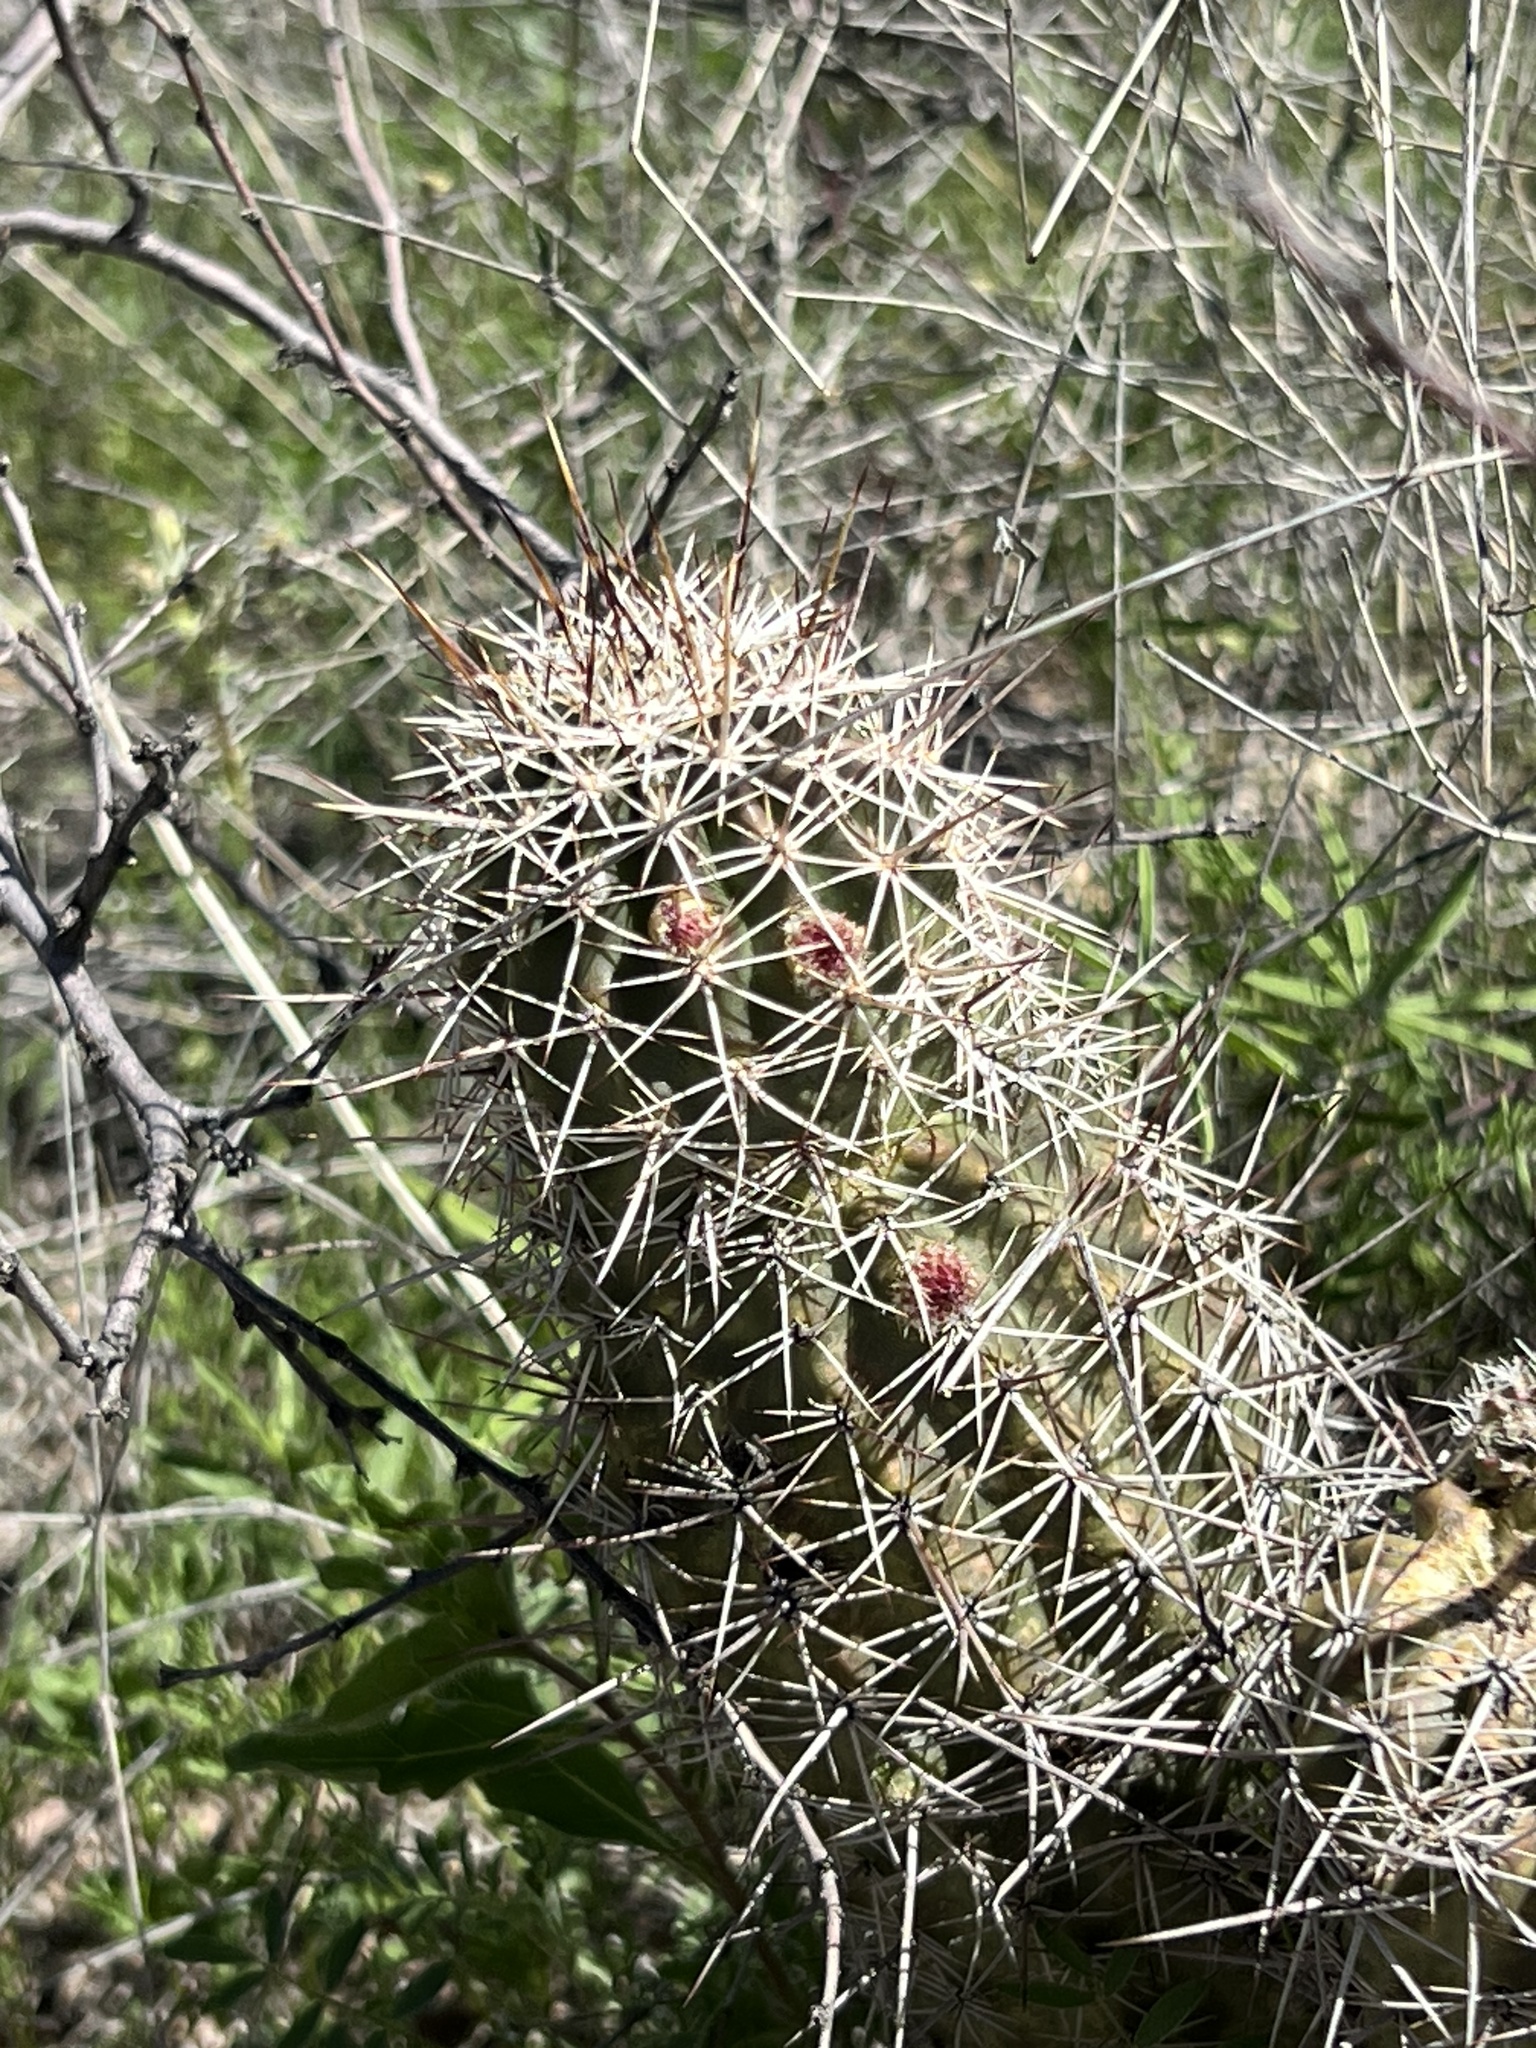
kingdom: Plantae
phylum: Tracheophyta
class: Magnoliopsida
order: Caryophyllales
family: Cactaceae
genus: Echinocereus
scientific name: Echinocereus fasciculatus
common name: Bundle hedgehog
